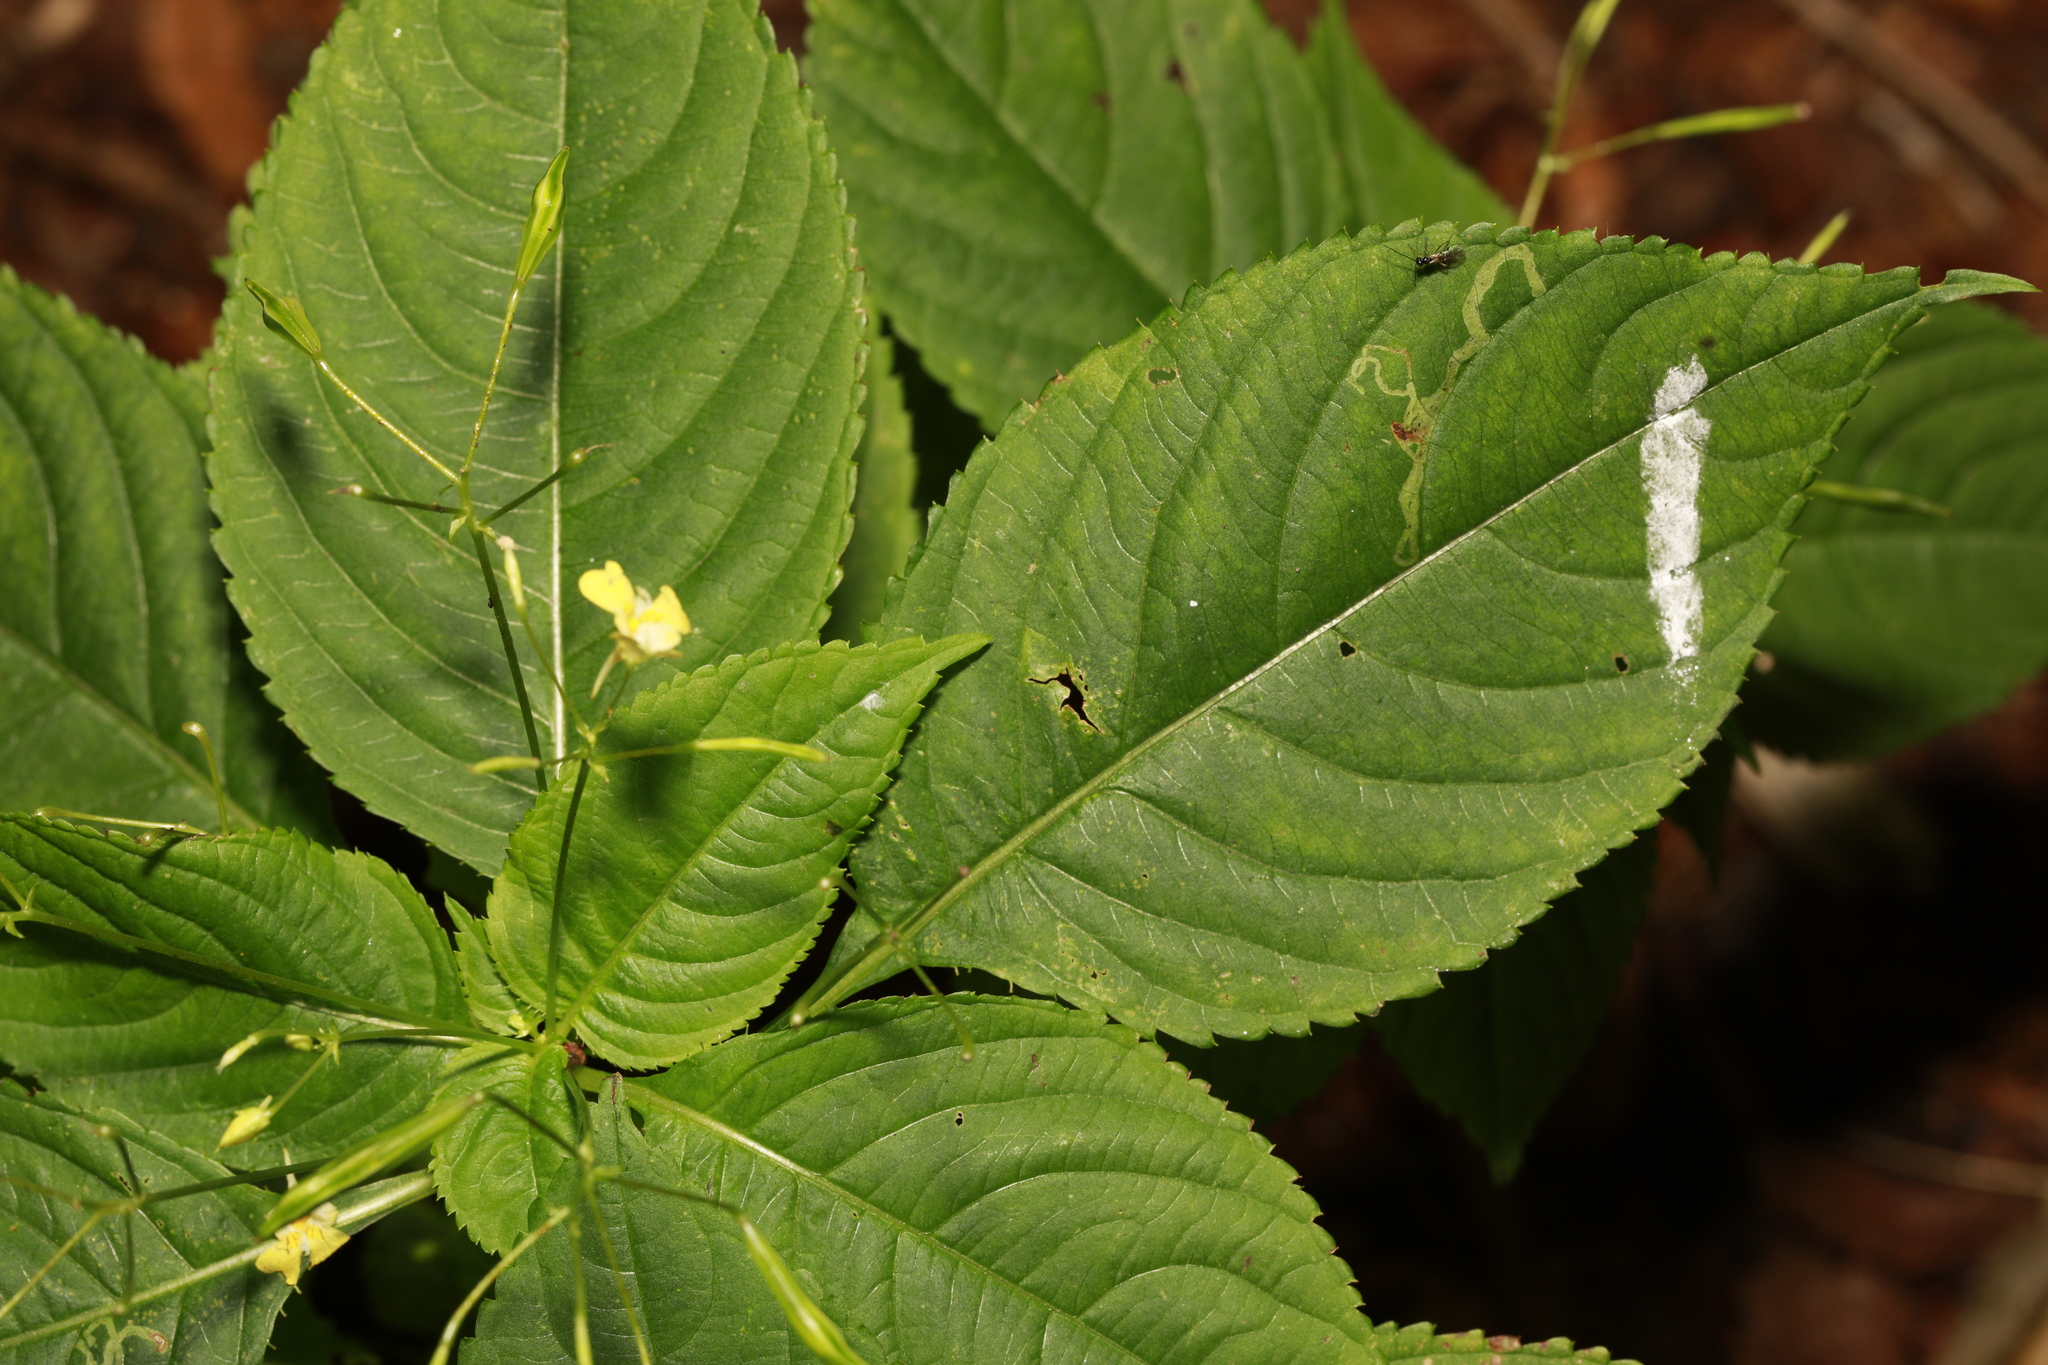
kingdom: Animalia
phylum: Arthropoda
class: Insecta
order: Diptera
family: Agromyzidae
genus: Phytoliriomyza
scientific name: Phytoliriomyza melampyga
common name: Jewelweed leaf-miner fly
